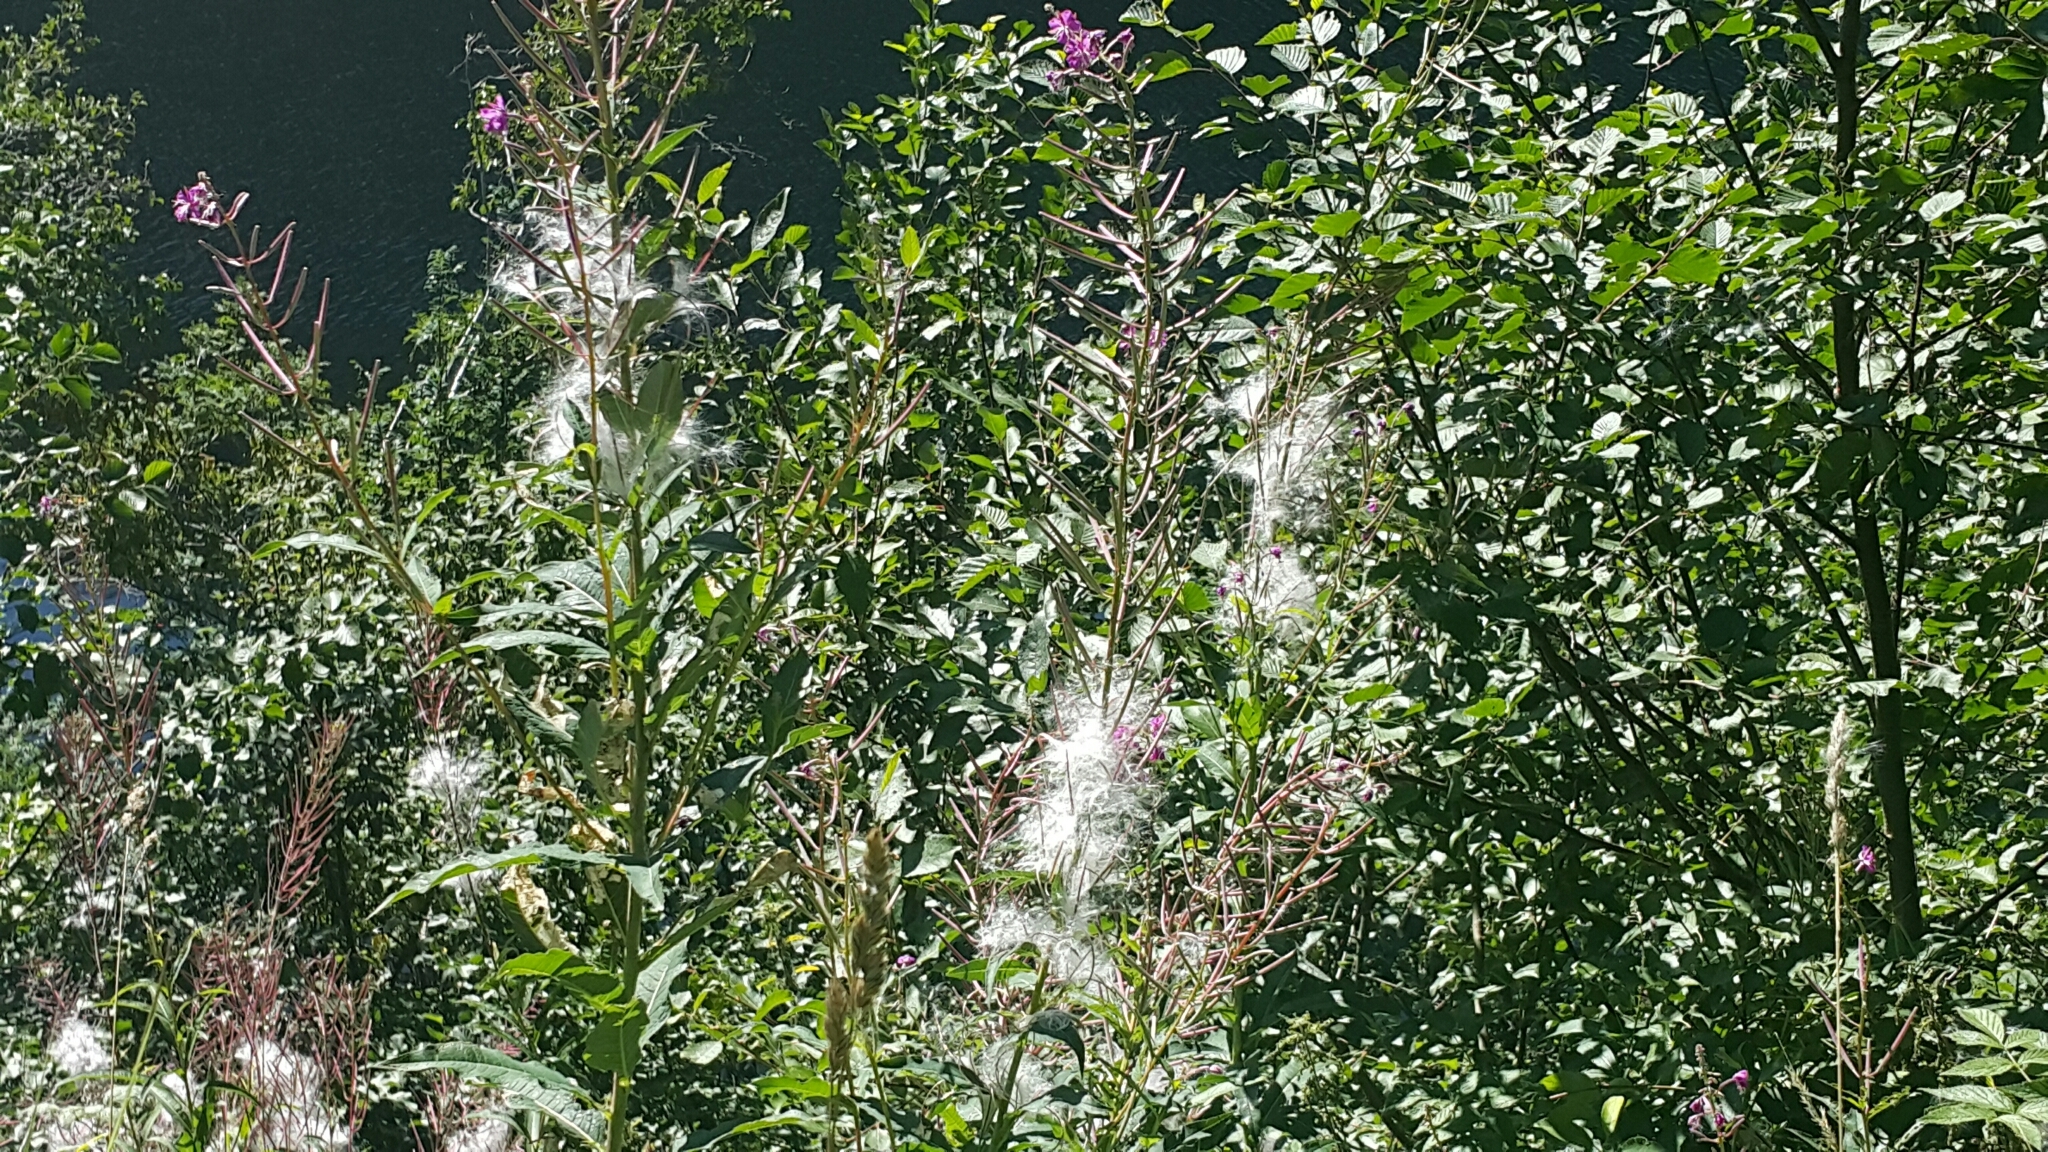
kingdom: Plantae
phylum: Tracheophyta
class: Magnoliopsida
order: Myrtales
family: Onagraceae
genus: Chamaenerion
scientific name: Chamaenerion angustifolium
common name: Fireweed
